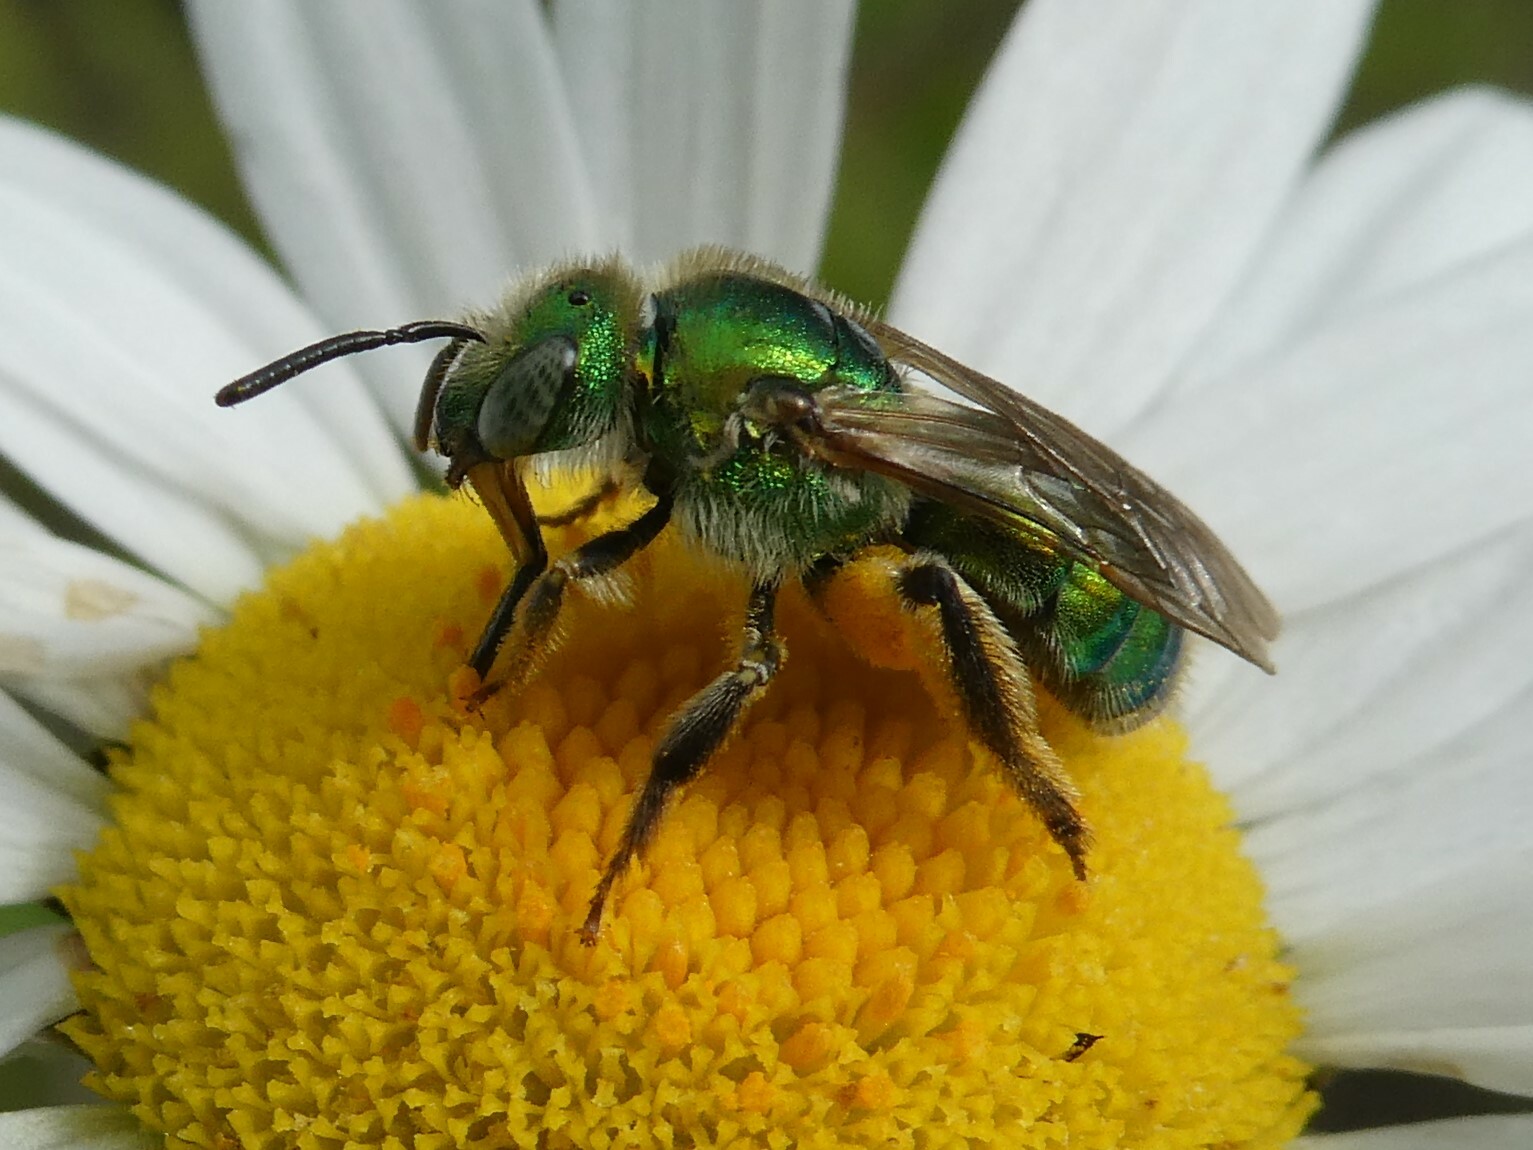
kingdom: Animalia
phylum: Arthropoda
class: Insecta
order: Hymenoptera
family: Halictidae
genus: Agapostemon
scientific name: Agapostemon texanus
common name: Texas striped sweat bee
